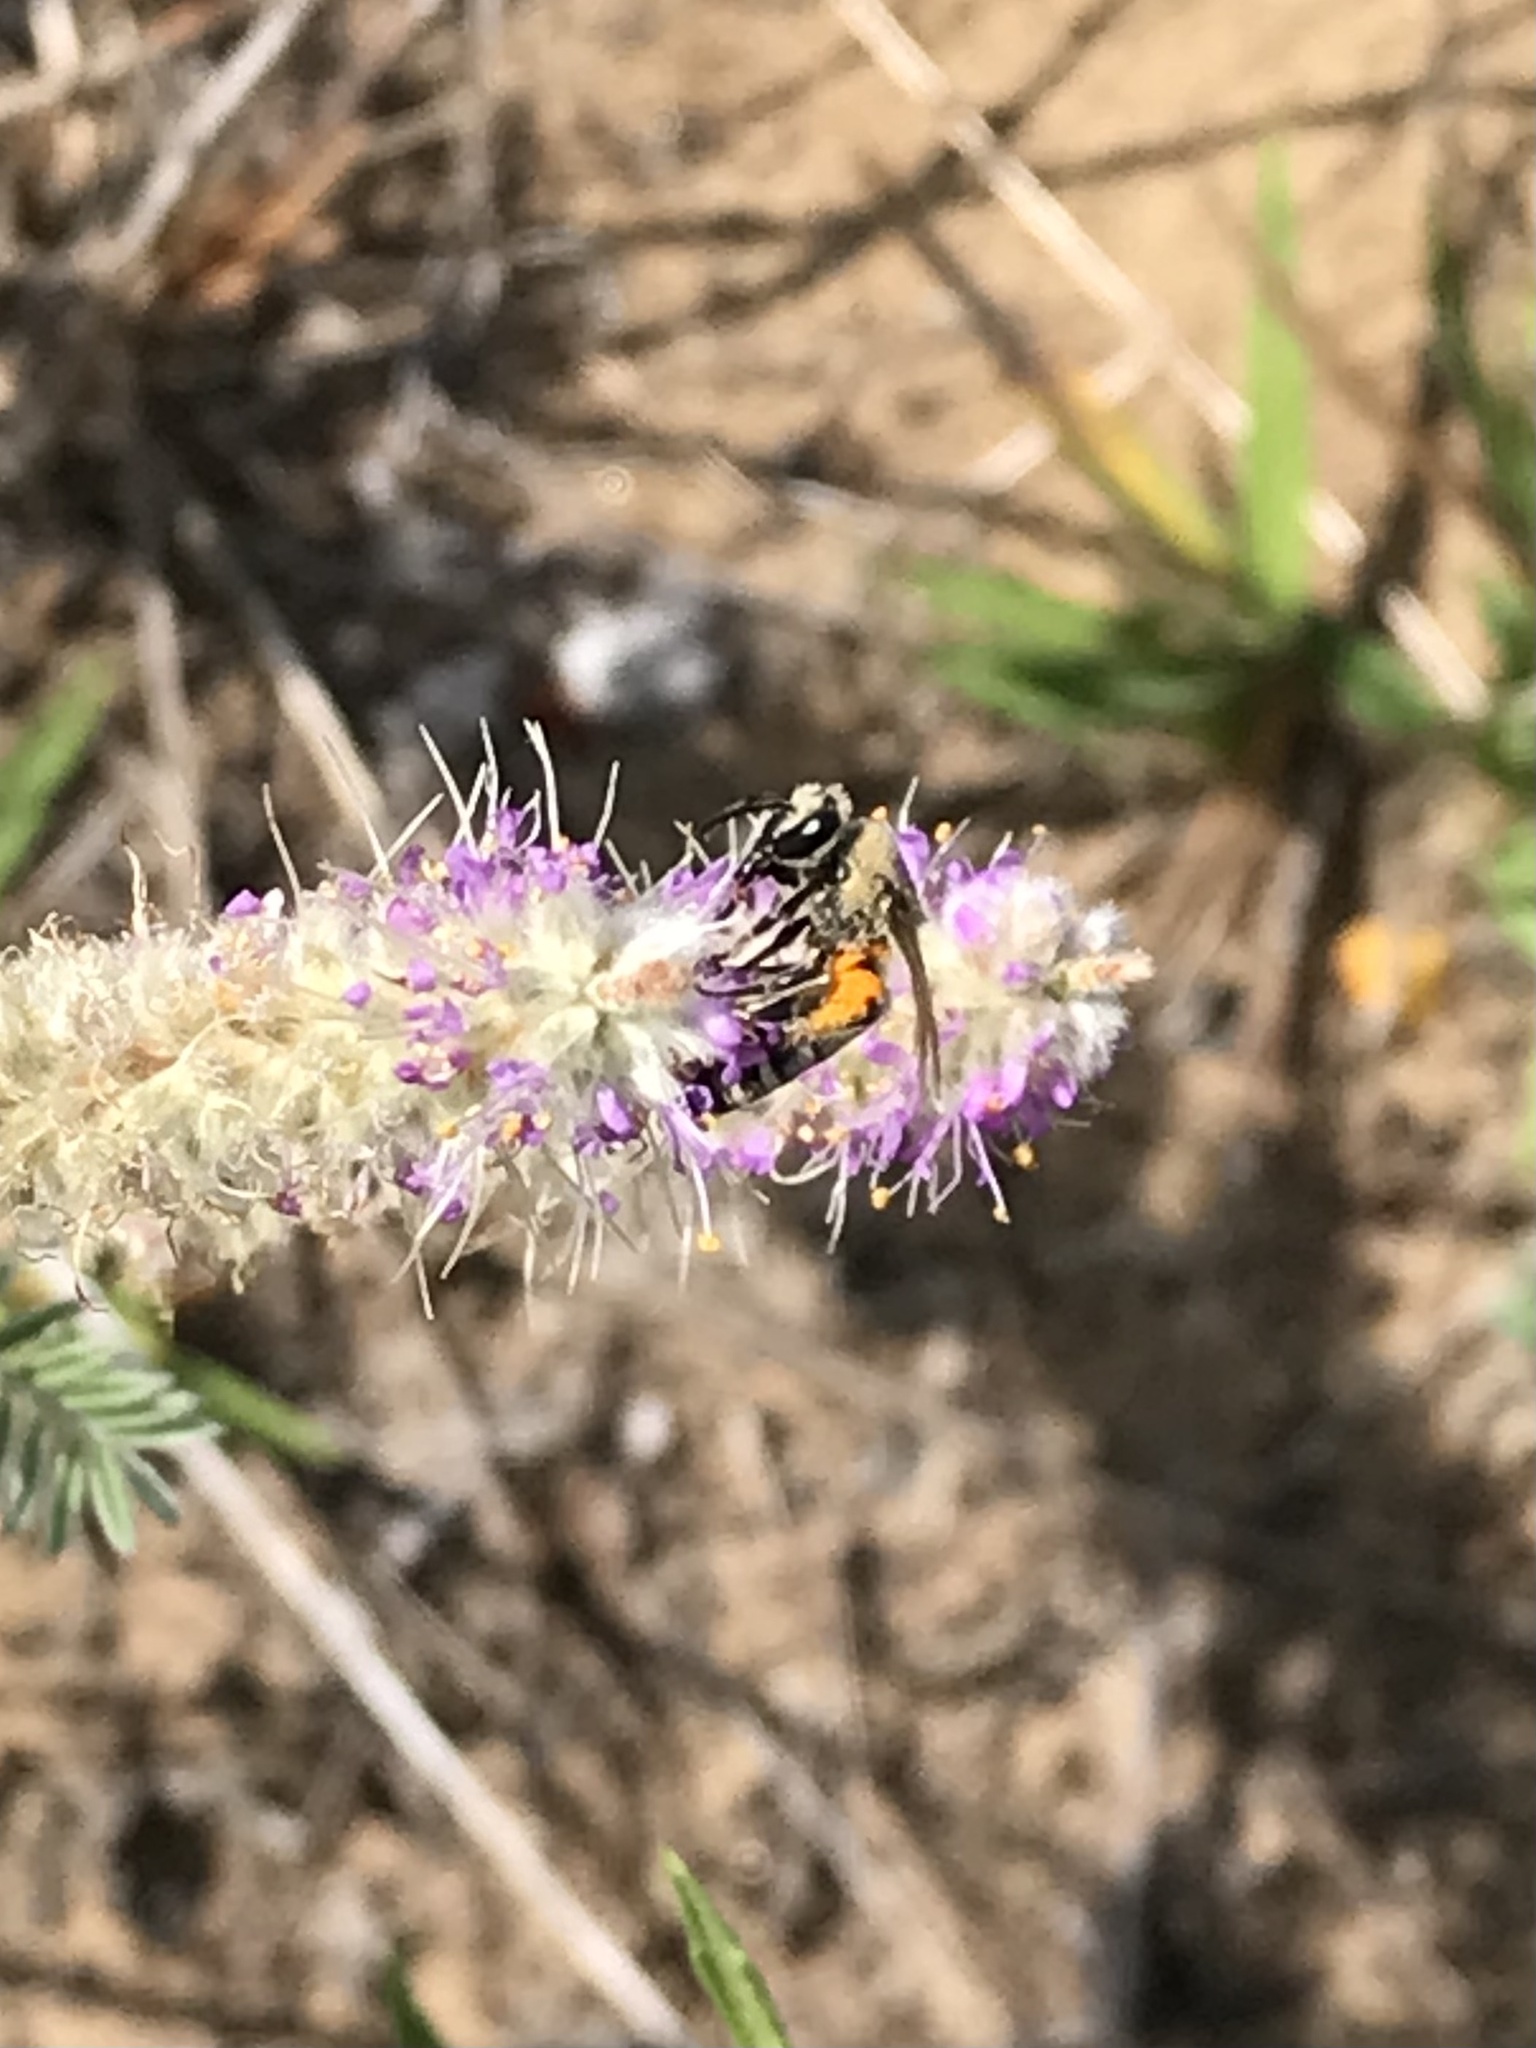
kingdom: Animalia
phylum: Arthropoda
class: Insecta
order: Hymenoptera
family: Colletidae
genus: Colletes
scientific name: Colletes aberrans
